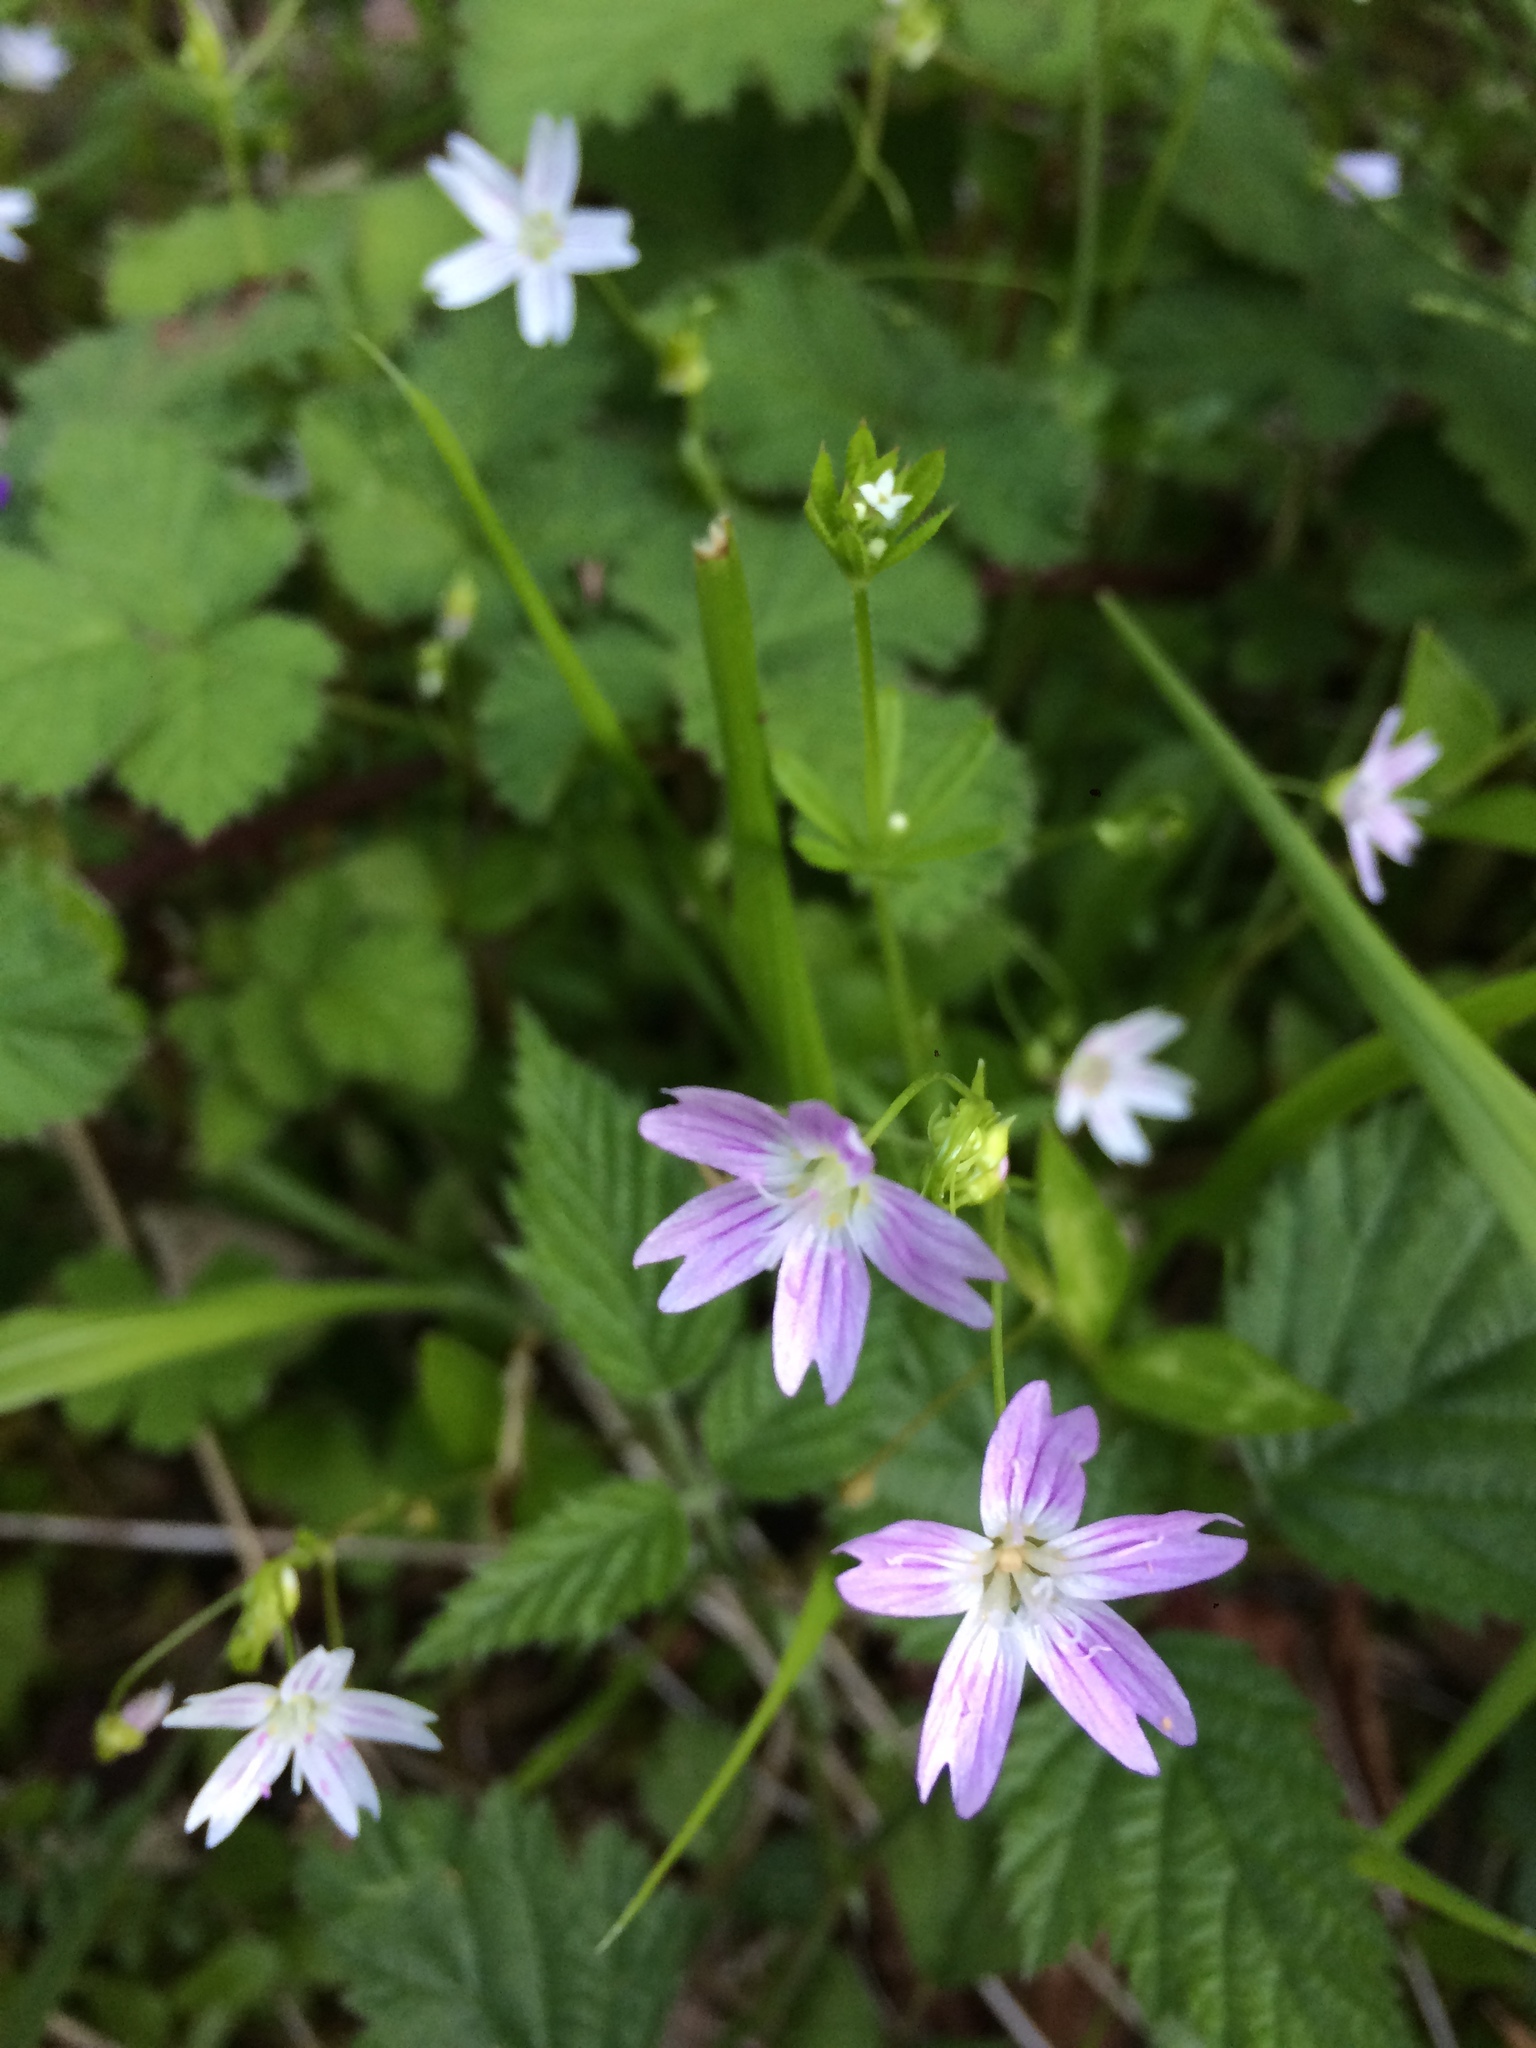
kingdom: Plantae
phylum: Tracheophyta
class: Magnoliopsida
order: Caryophyllales
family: Montiaceae
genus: Claytonia
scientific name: Claytonia sibirica
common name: Pink purslane
